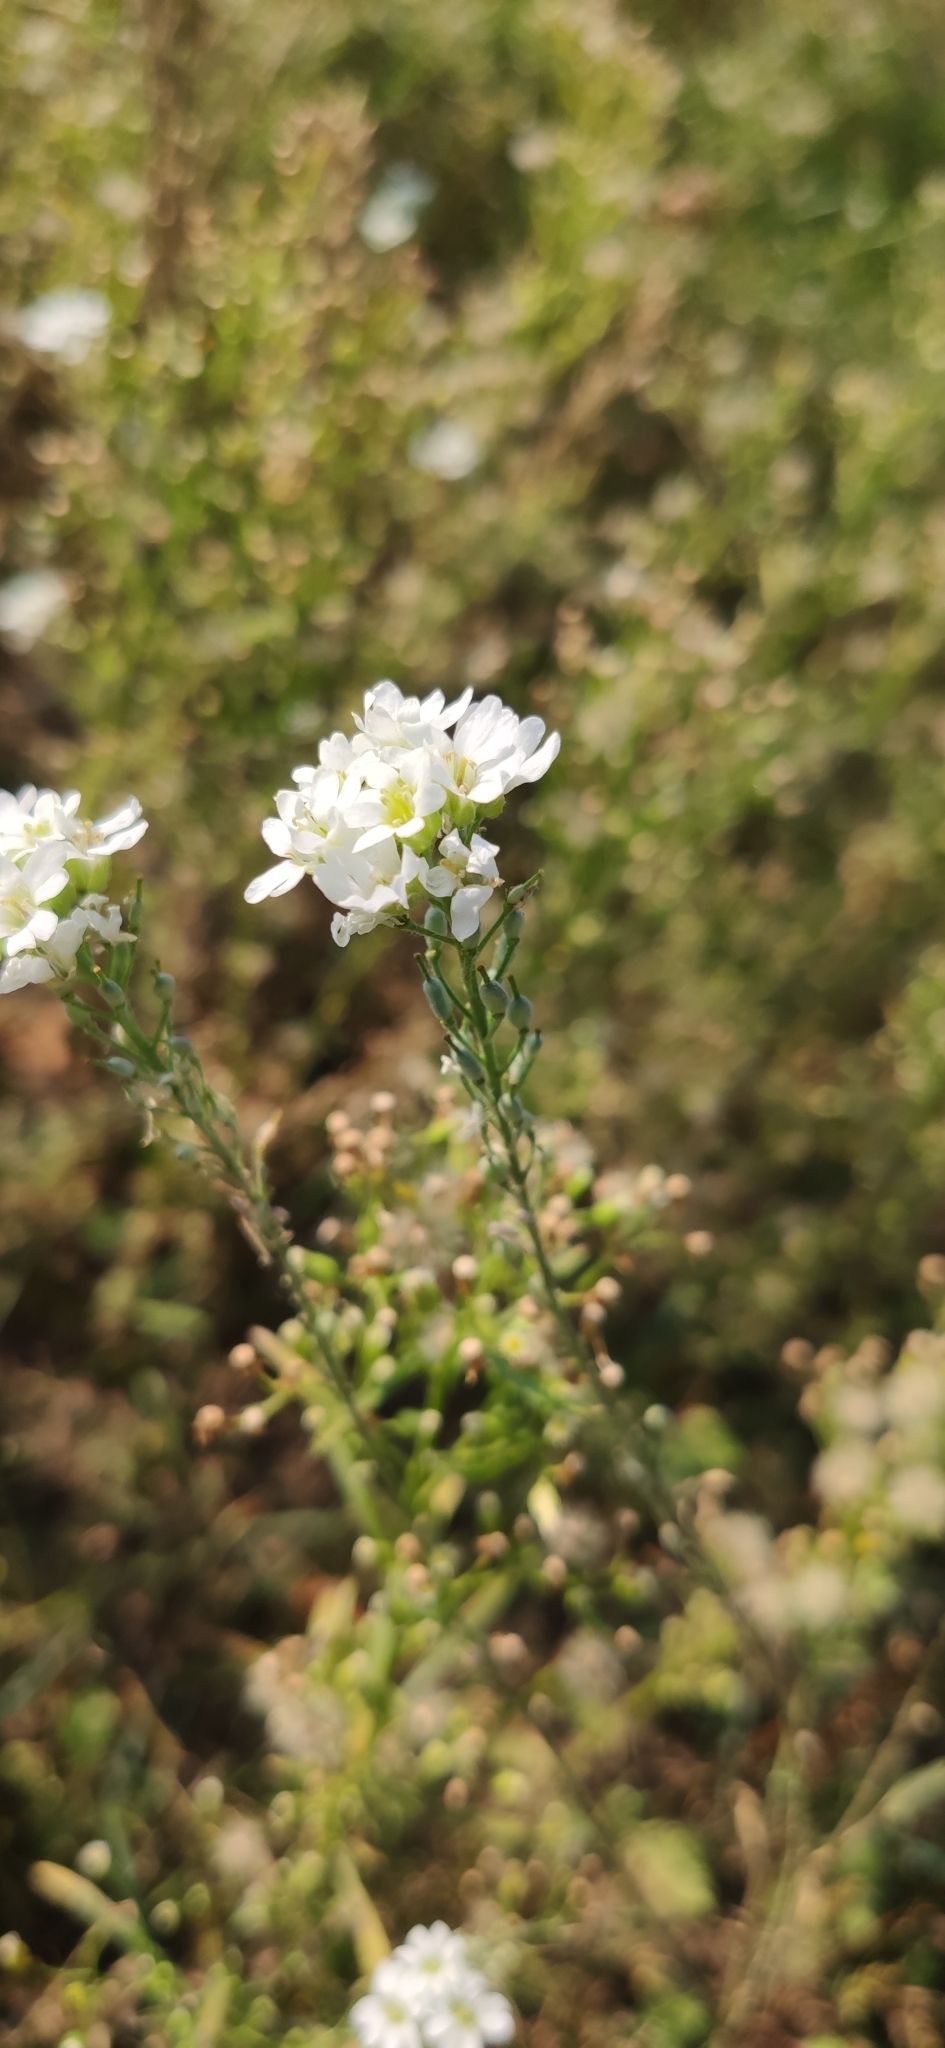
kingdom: Plantae
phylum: Tracheophyta
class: Magnoliopsida
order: Brassicales
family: Brassicaceae
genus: Berteroa
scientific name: Berteroa incana
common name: Hoary alison
